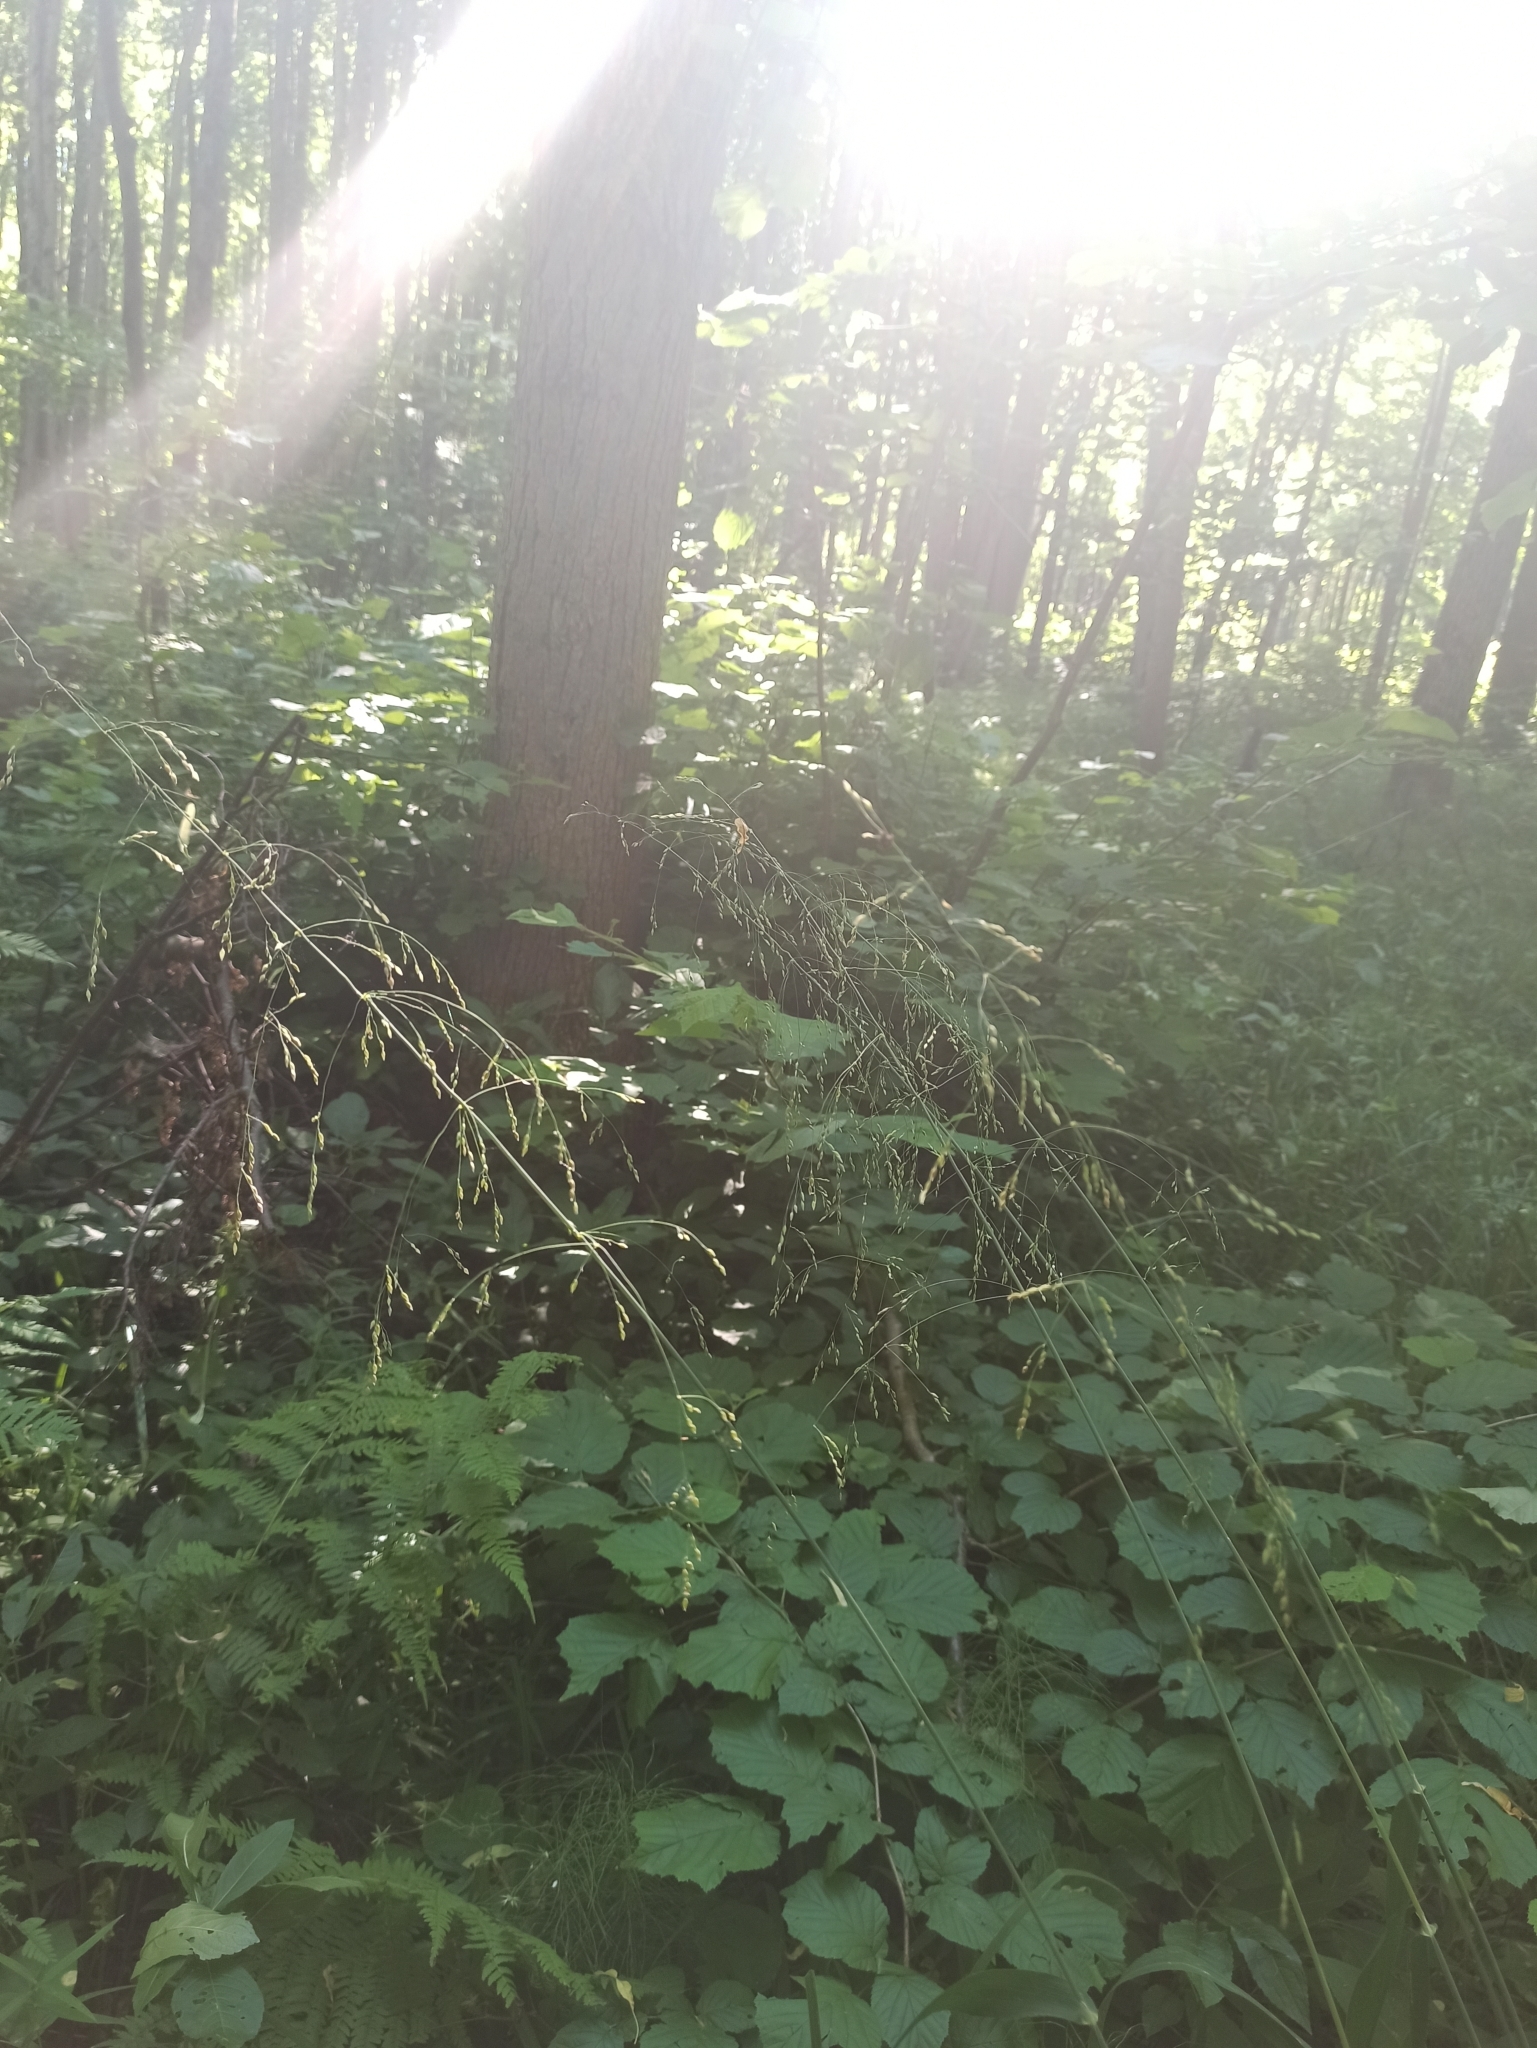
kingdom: Plantae
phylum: Tracheophyta
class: Liliopsida
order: Poales
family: Poaceae
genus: Milium
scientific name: Milium effusum
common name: Wood millet
